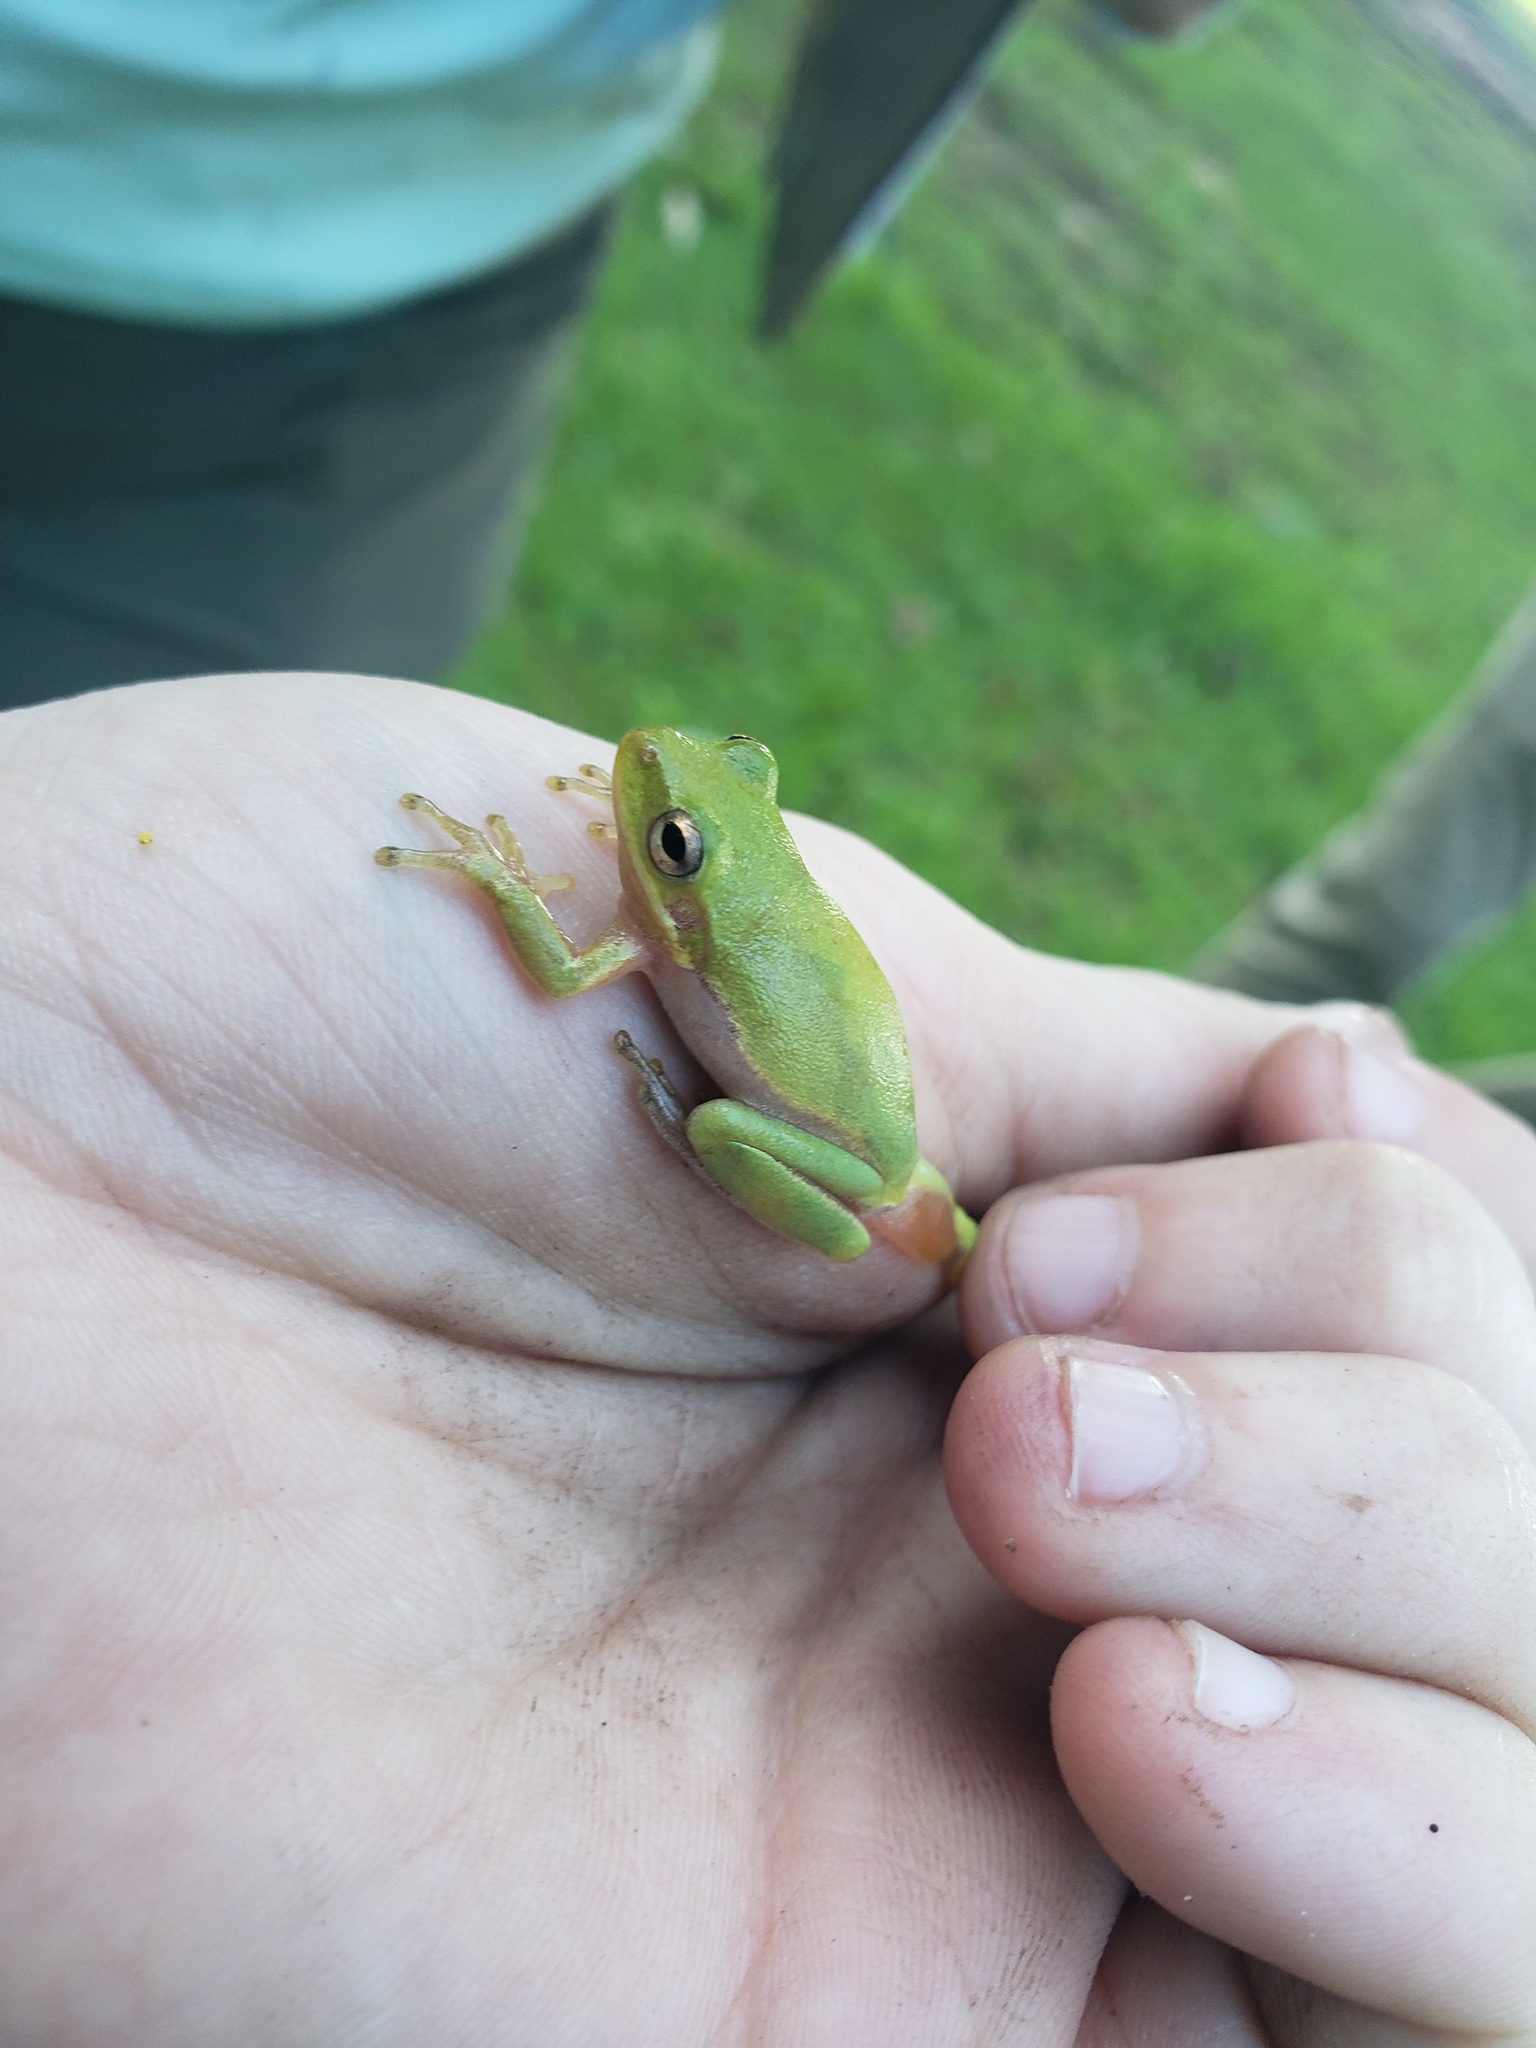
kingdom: Animalia
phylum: Chordata
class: Amphibia
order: Anura
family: Hylidae
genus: Dryophytes
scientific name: Dryophytes squirellus
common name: Squirrel treefrog
